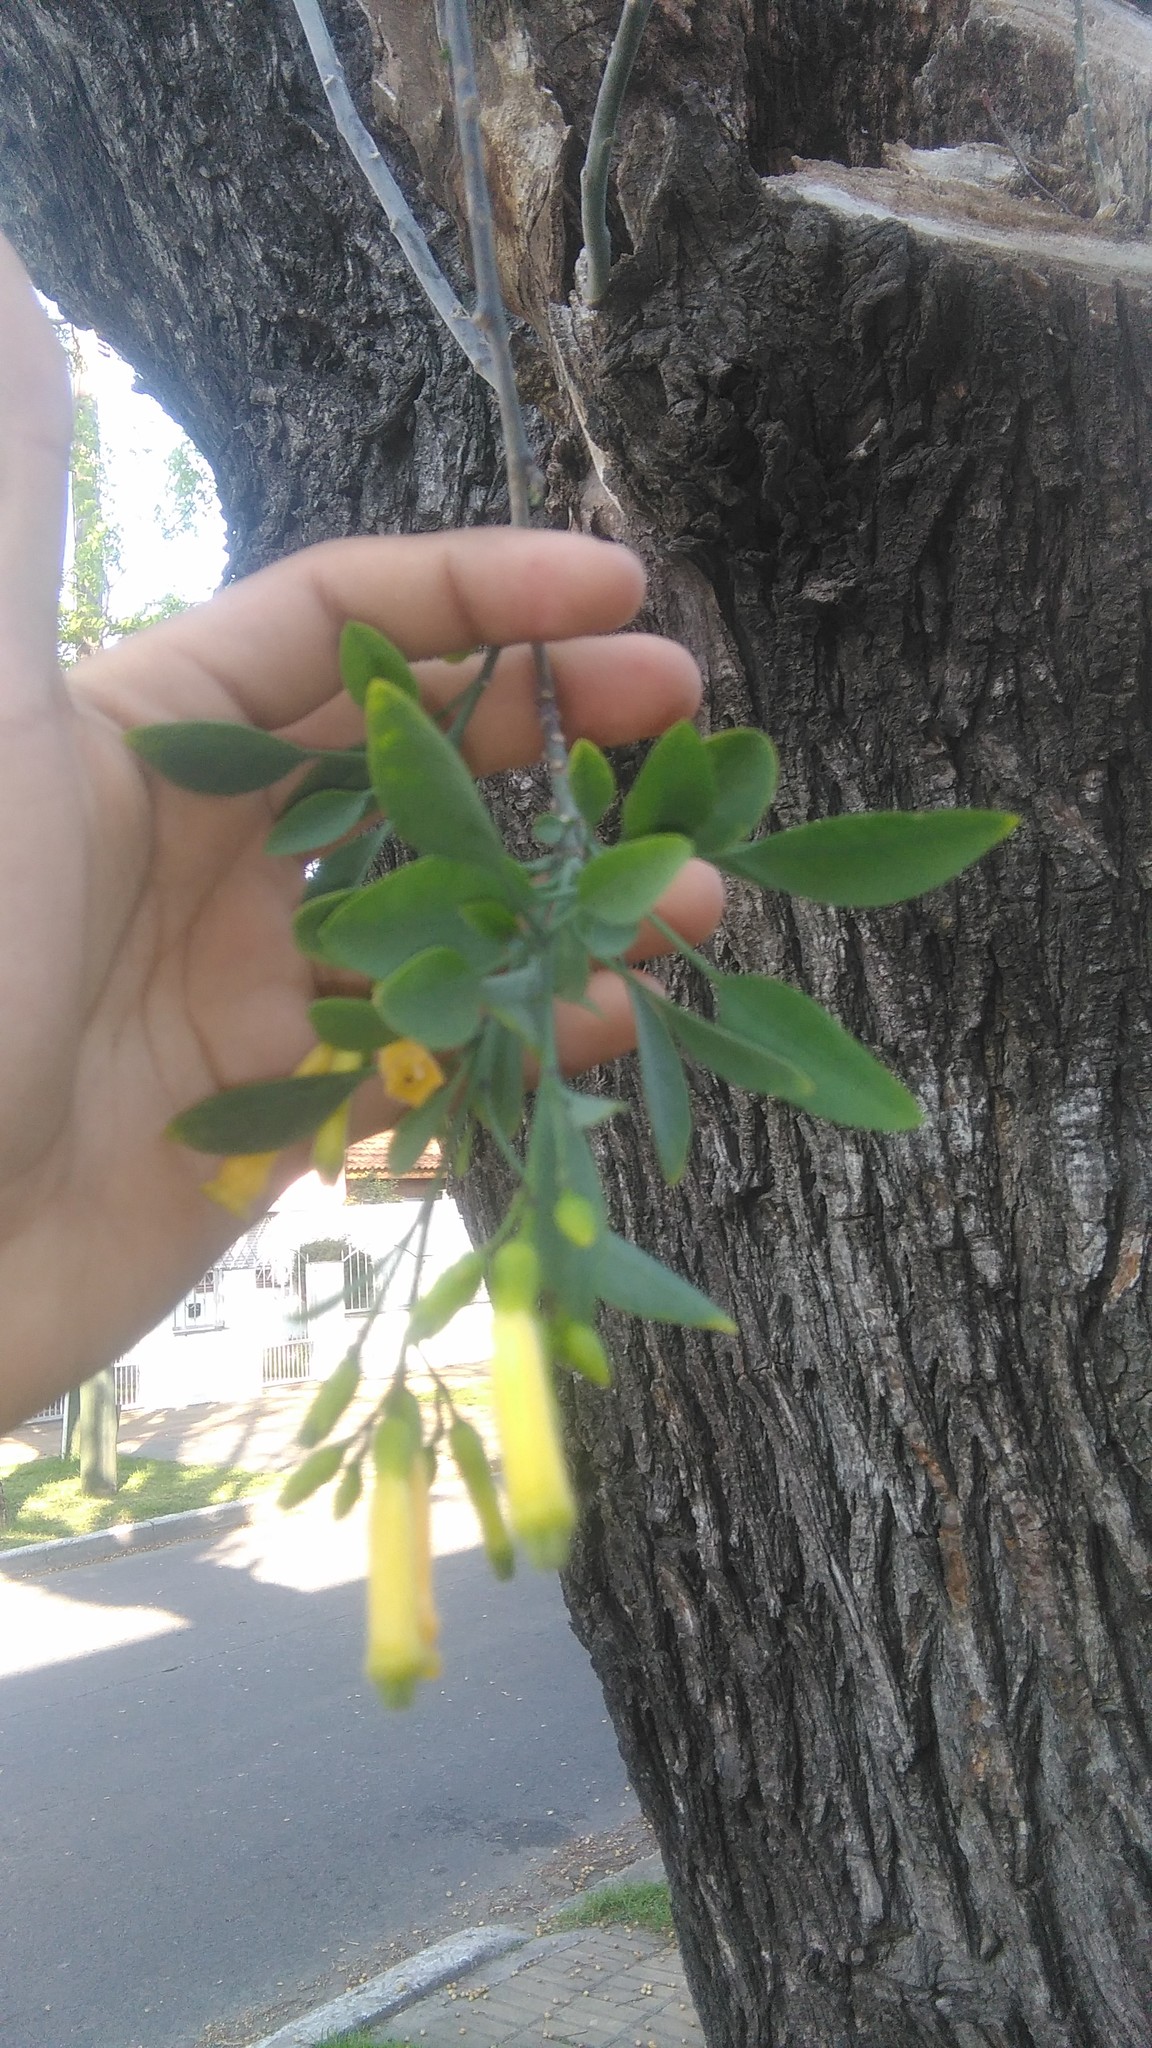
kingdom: Plantae
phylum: Tracheophyta
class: Magnoliopsida
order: Solanales
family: Solanaceae
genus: Nicotiana
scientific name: Nicotiana glauca
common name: Tree tobacco
